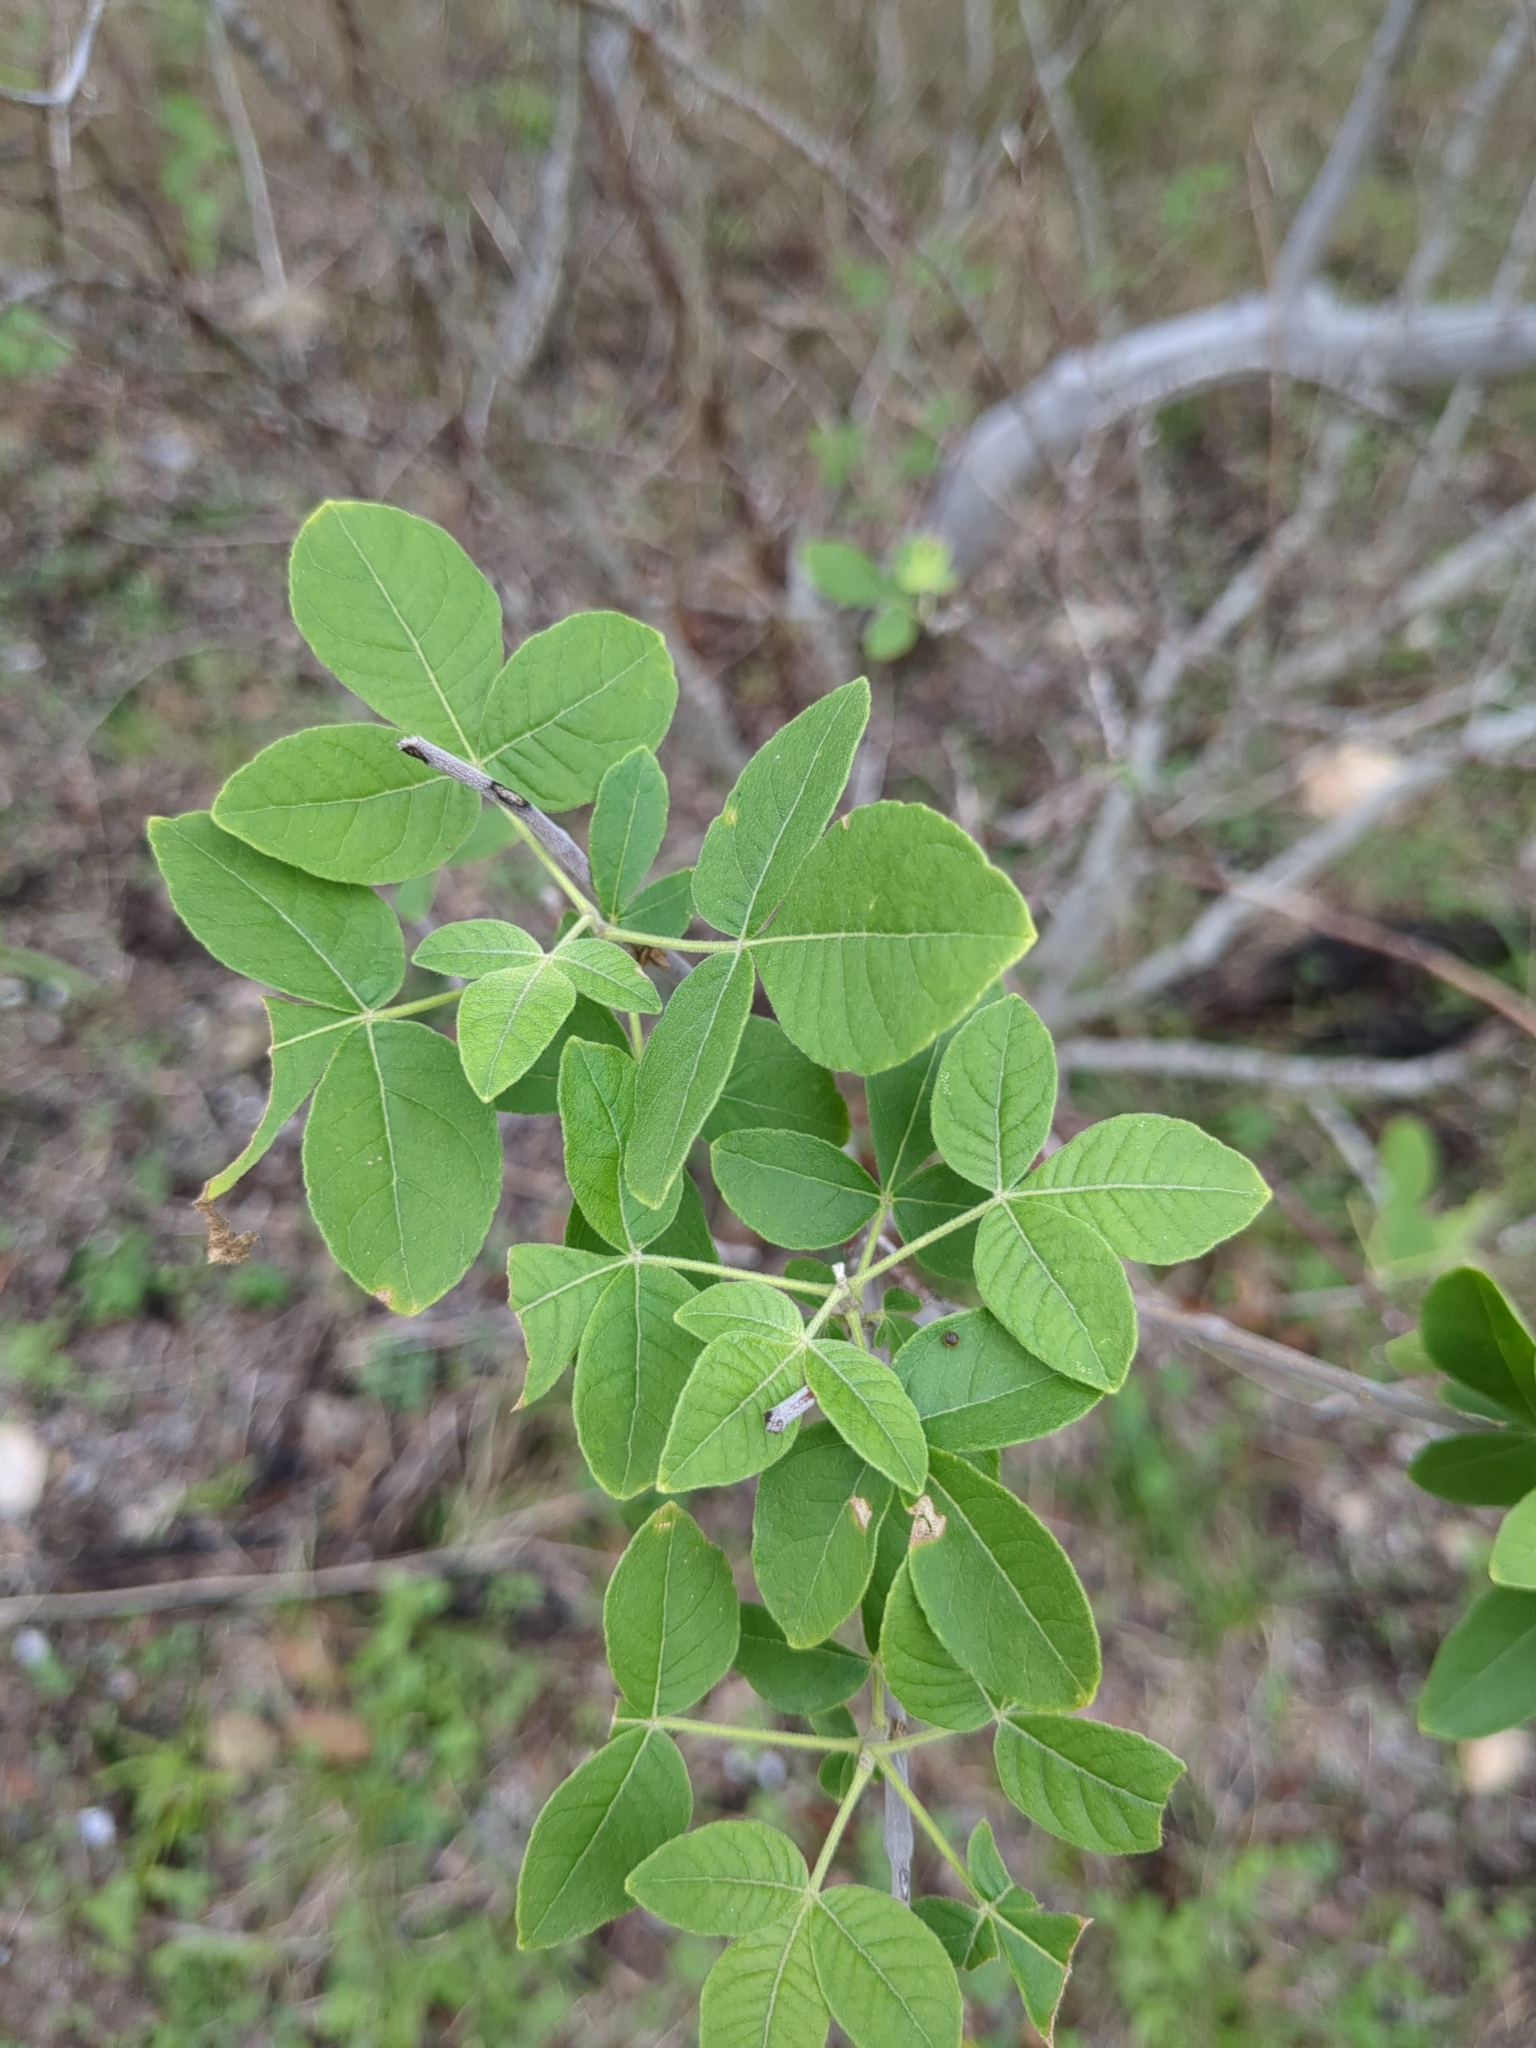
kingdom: Plantae
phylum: Tracheophyta
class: Magnoliopsida
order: Sapindales
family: Rutaceae
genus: Ptelea
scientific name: Ptelea trifoliata
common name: Common hop-tree
